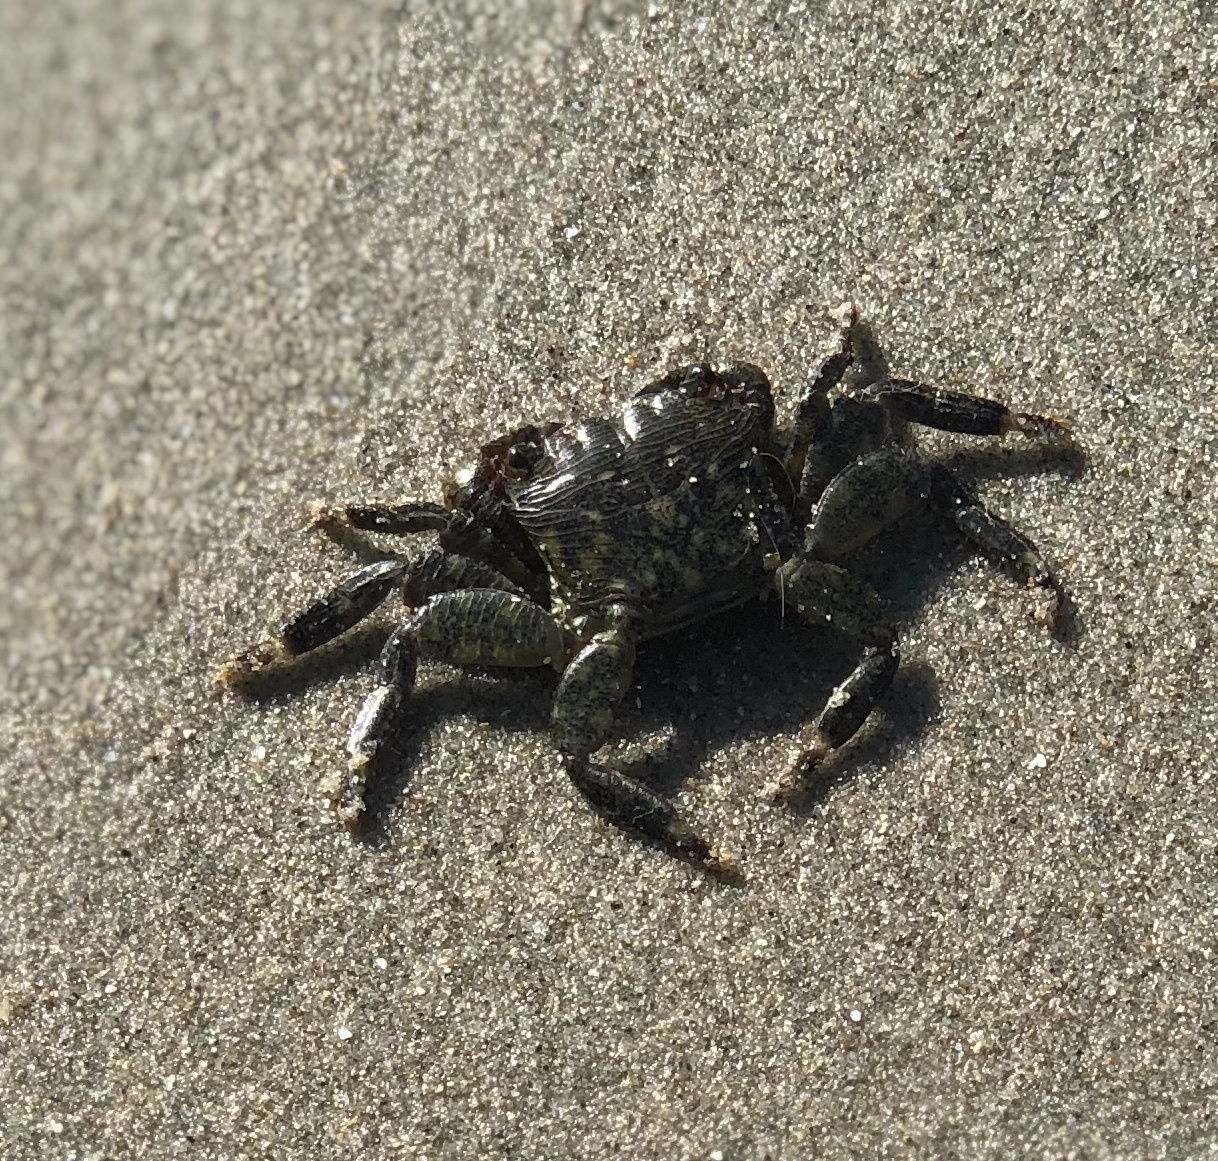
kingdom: Animalia
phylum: Arthropoda
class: Malacostraca
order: Decapoda
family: Grapsidae
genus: Pachygrapsus
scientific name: Pachygrapsus crassipes
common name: Striped shore crab
